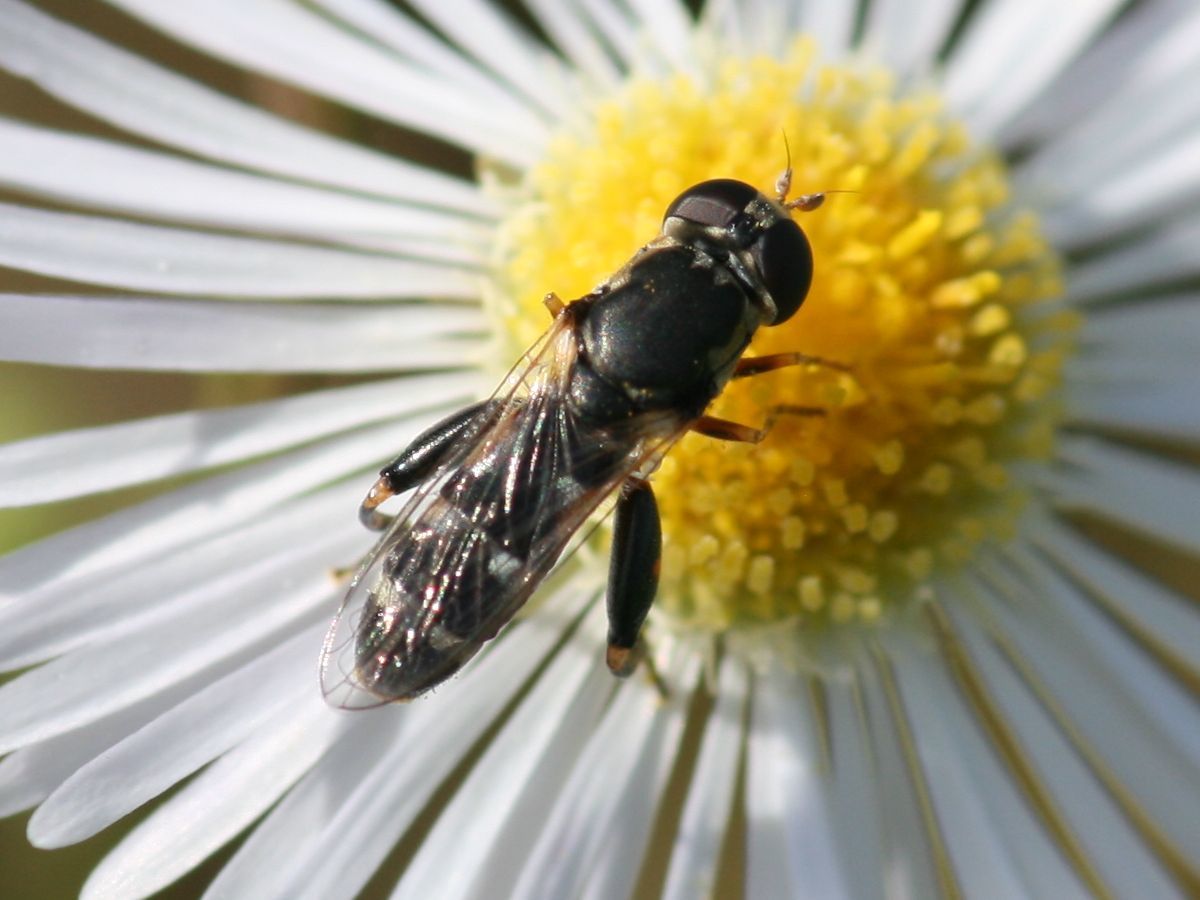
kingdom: Animalia
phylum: Arthropoda
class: Insecta
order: Diptera
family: Syrphidae
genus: Syritta
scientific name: Syritta pipiens
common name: Hover fly
